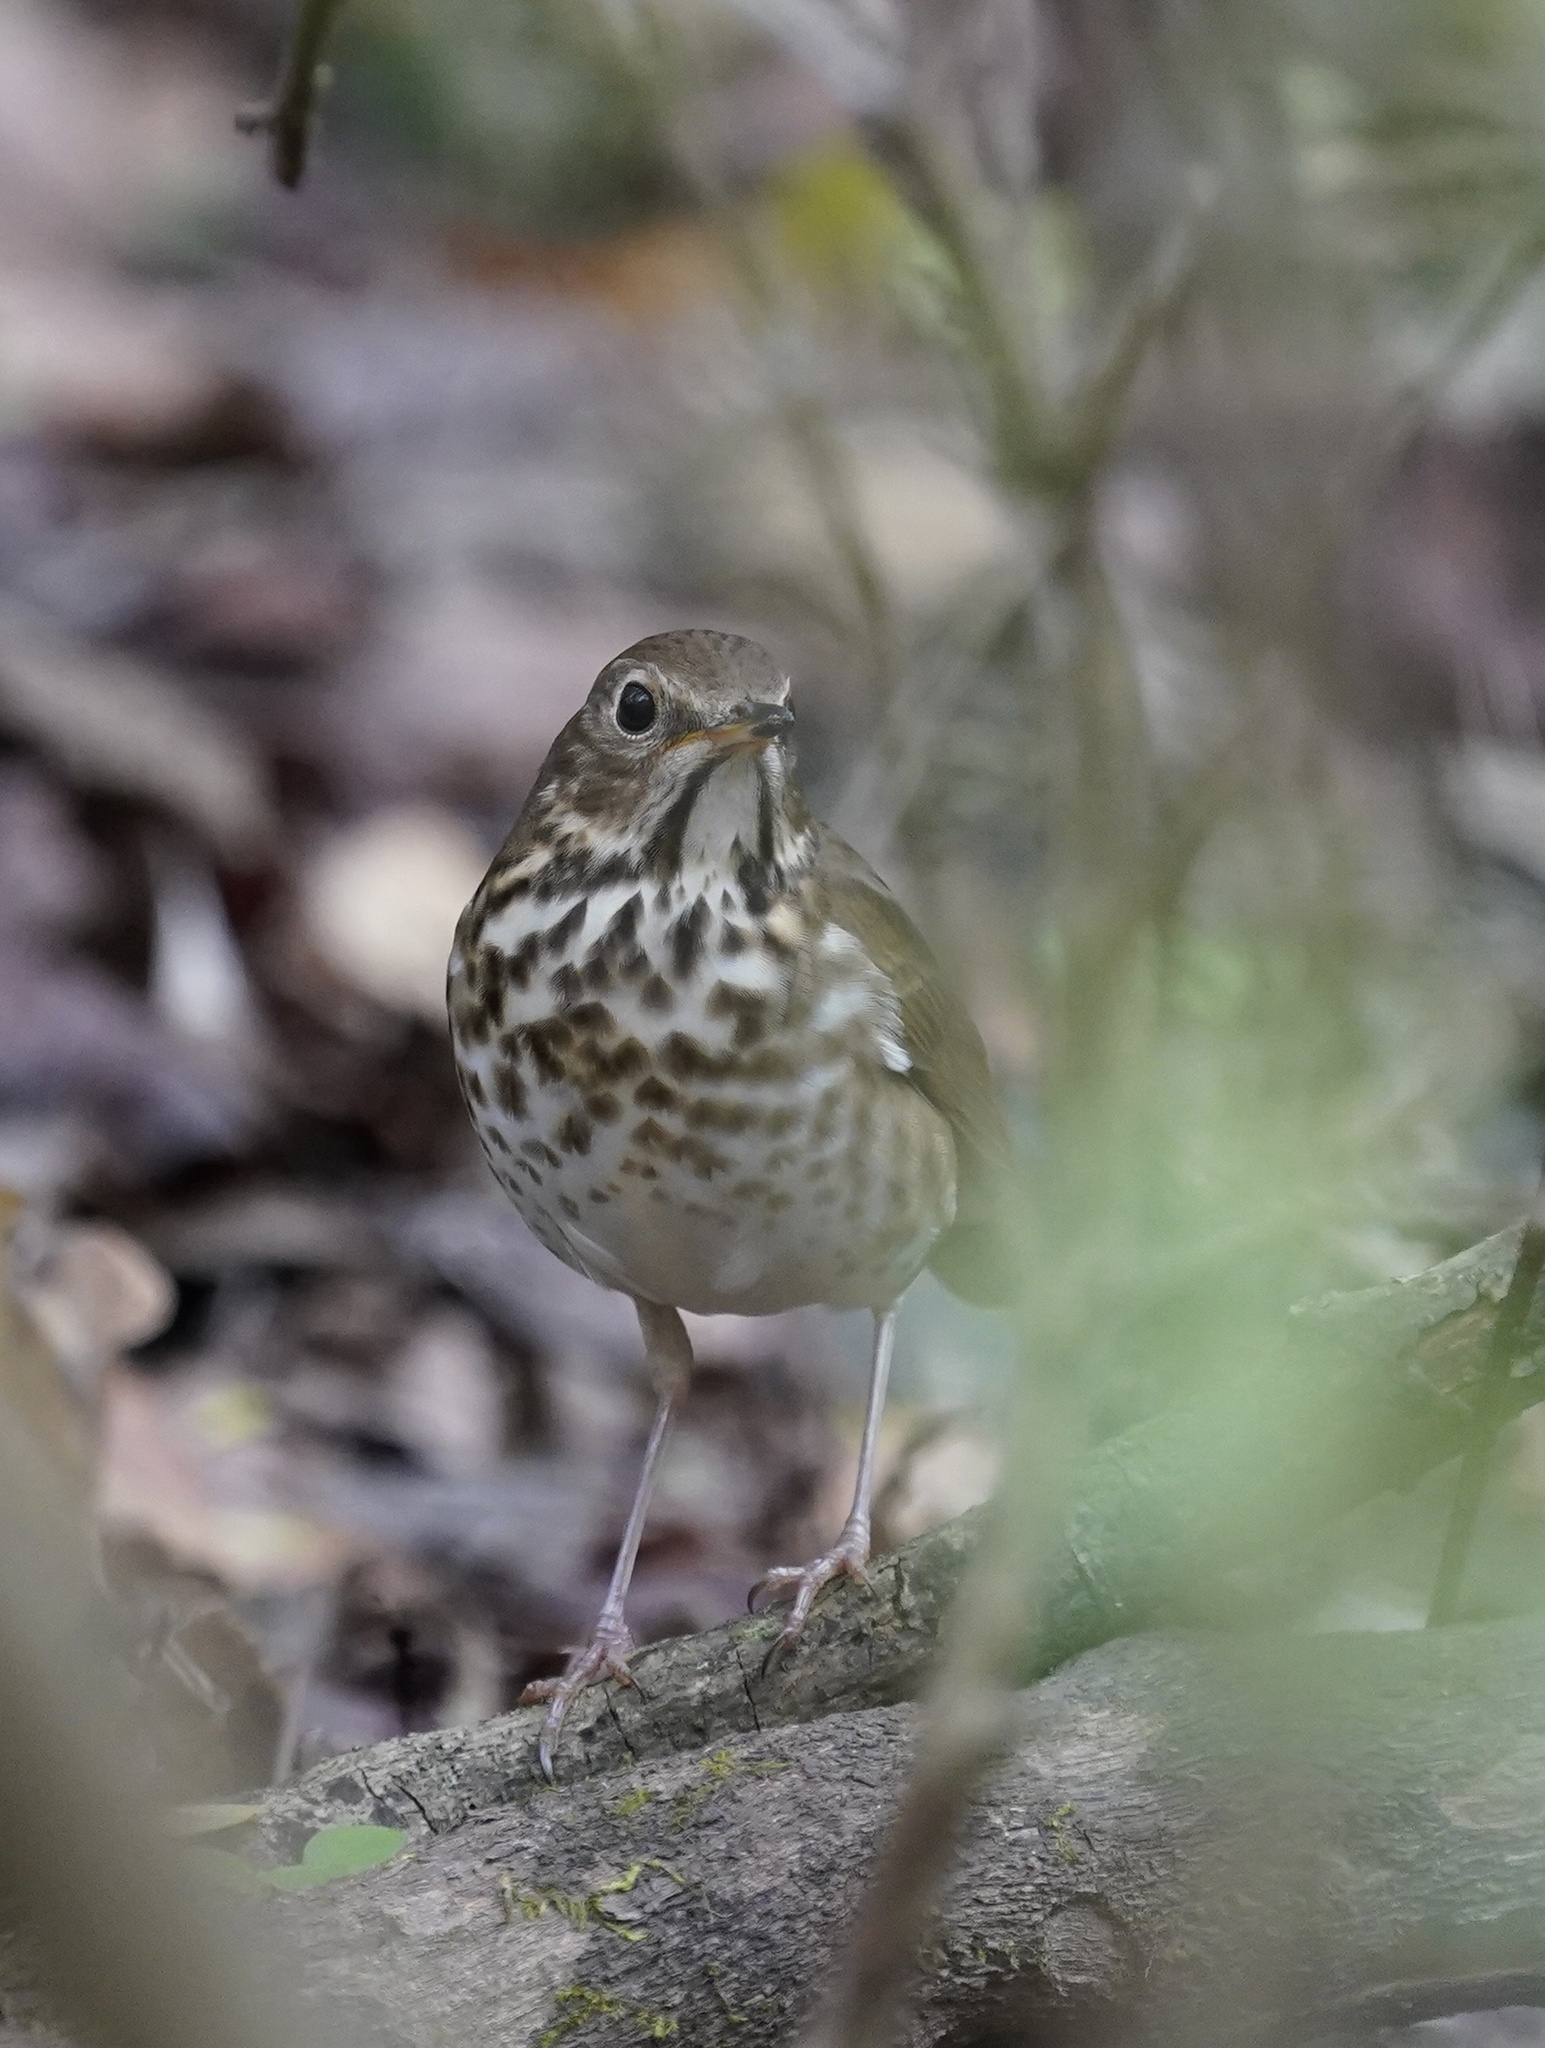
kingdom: Animalia
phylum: Chordata
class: Aves
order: Passeriformes
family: Turdidae
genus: Catharus
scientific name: Catharus guttatus
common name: Hermit thrush
